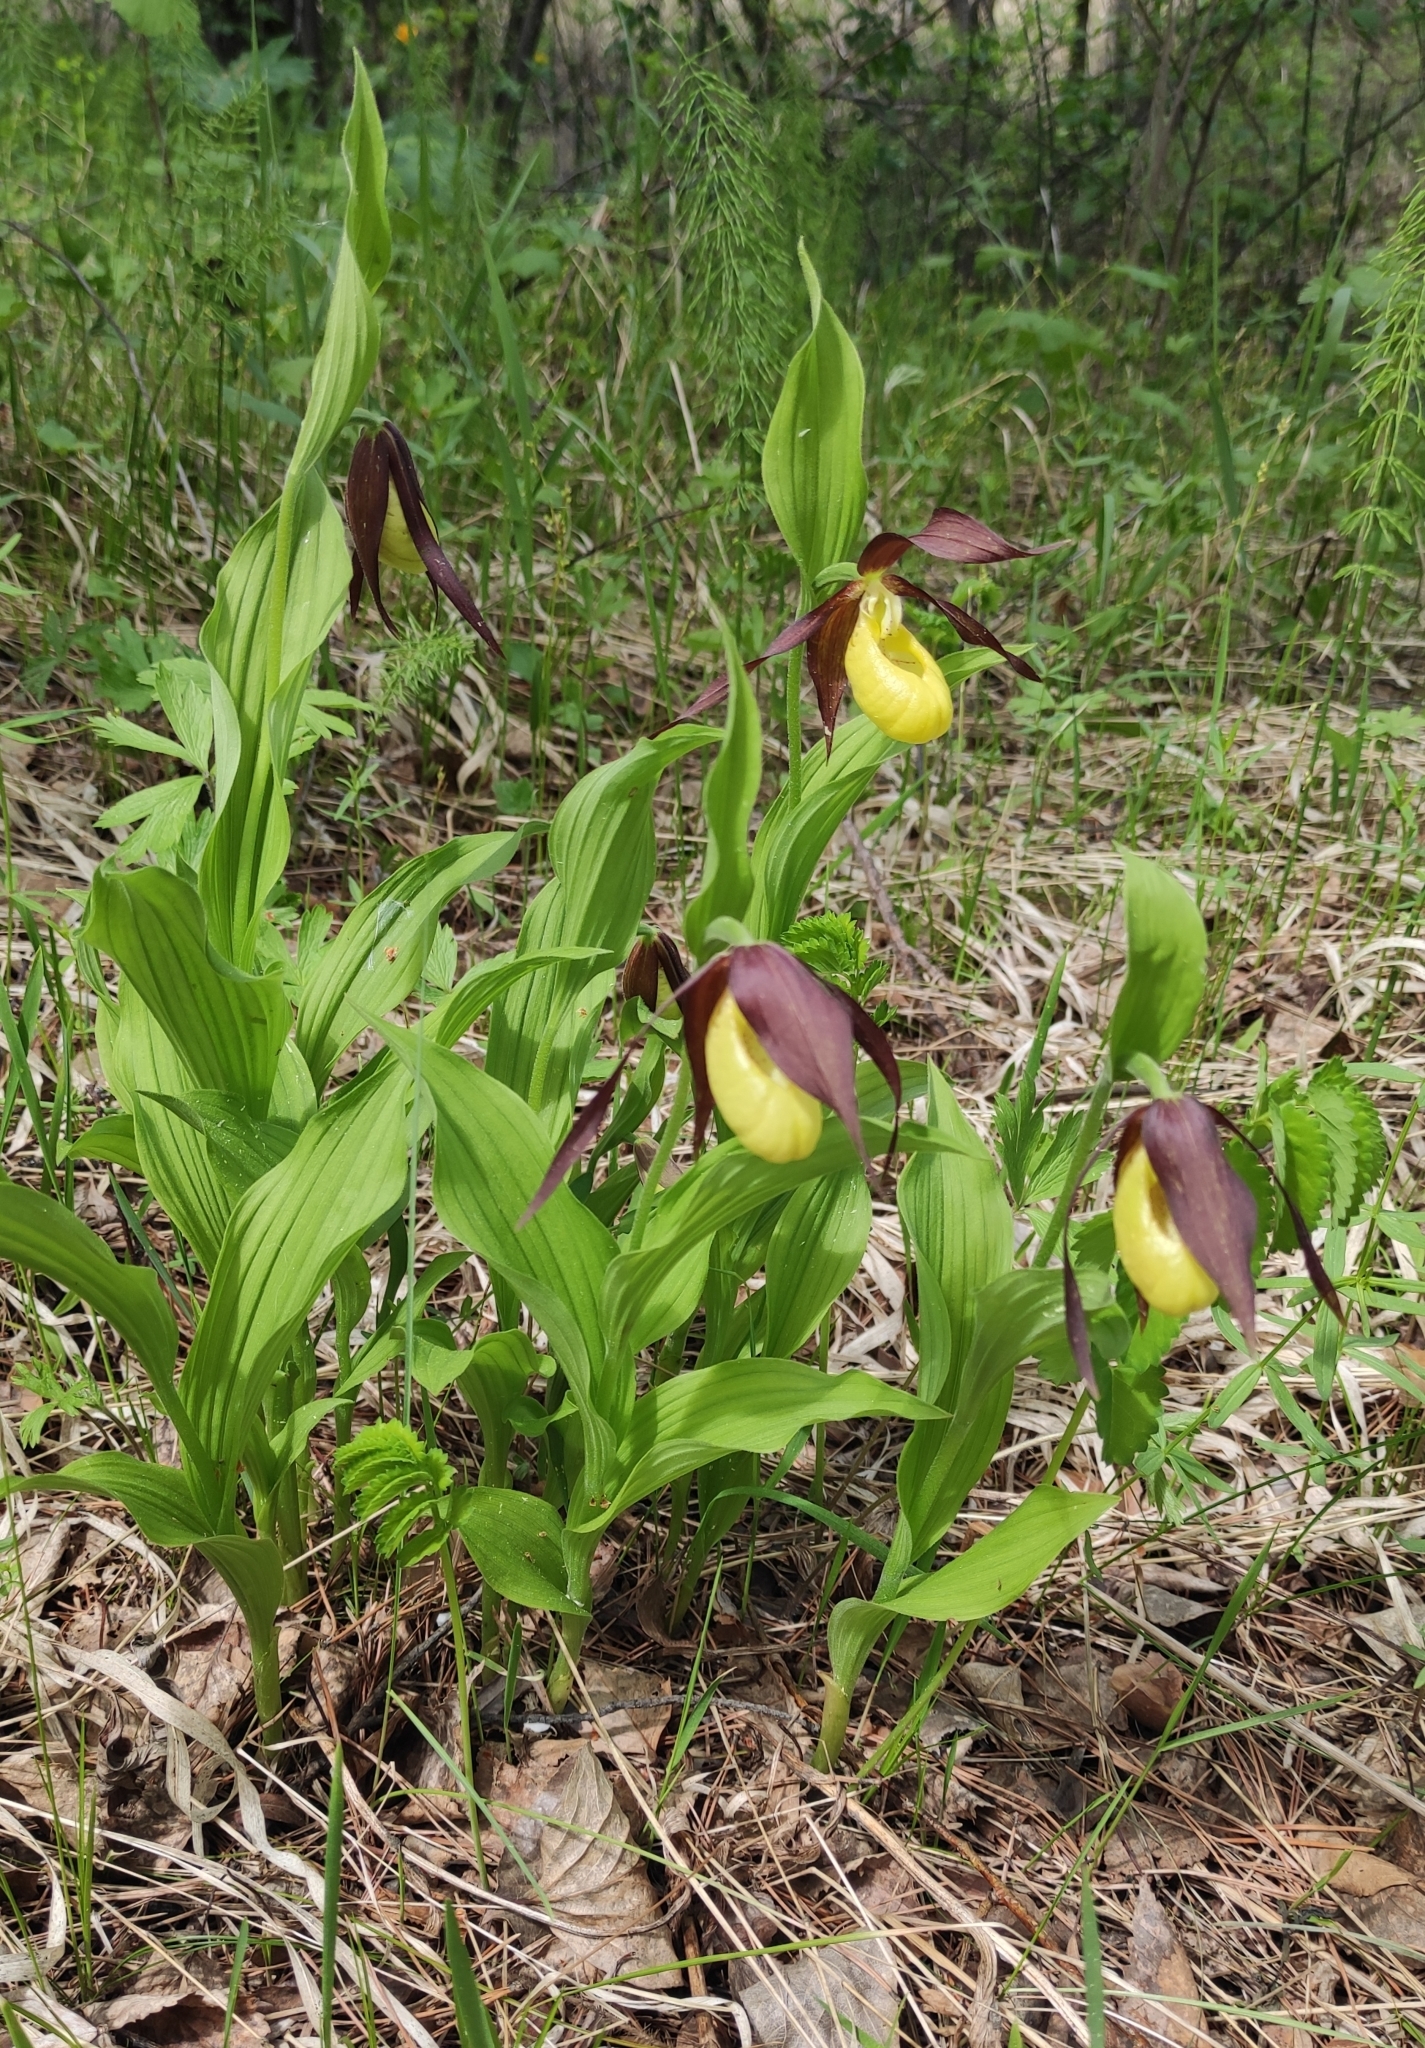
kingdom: Plantae
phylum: Tracheophyta
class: Liliopsida
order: Asparagales
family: Orchidaceae
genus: Cypripedium
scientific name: Cypripedium calceolus
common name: Lady's-slipper
